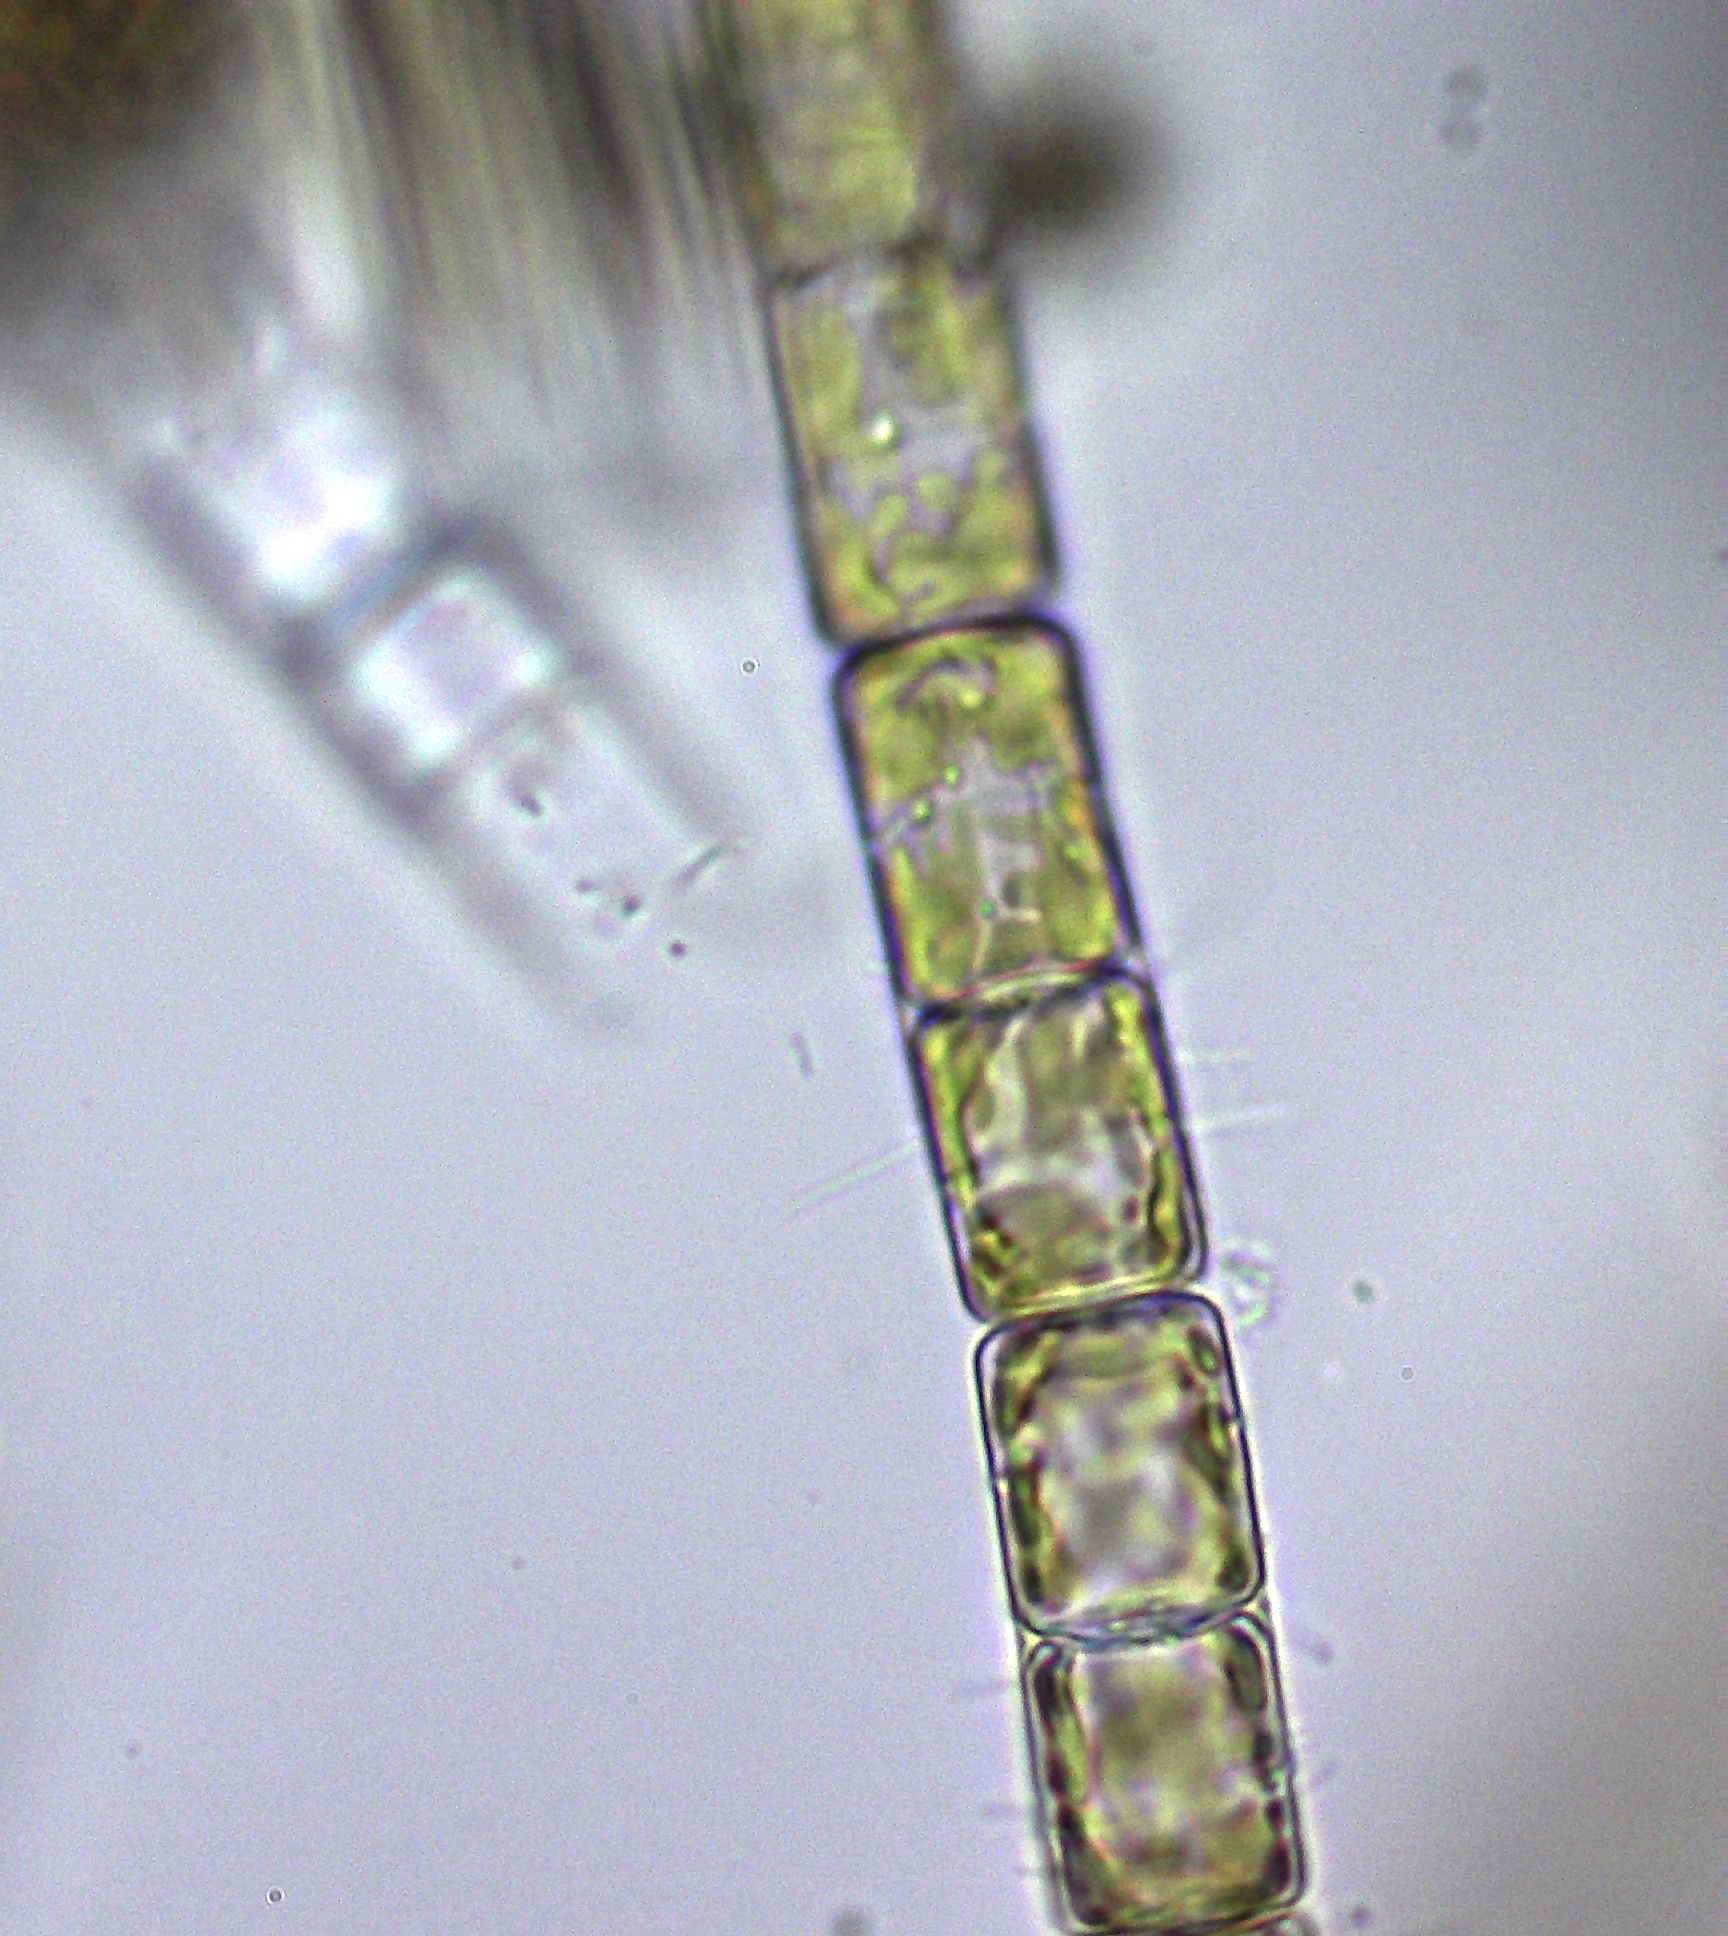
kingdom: Chromista
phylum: Ochrophyta
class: Bacillariophyceae
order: Melosirales
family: Melosiraceae
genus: Melosira
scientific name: Melosira varians
